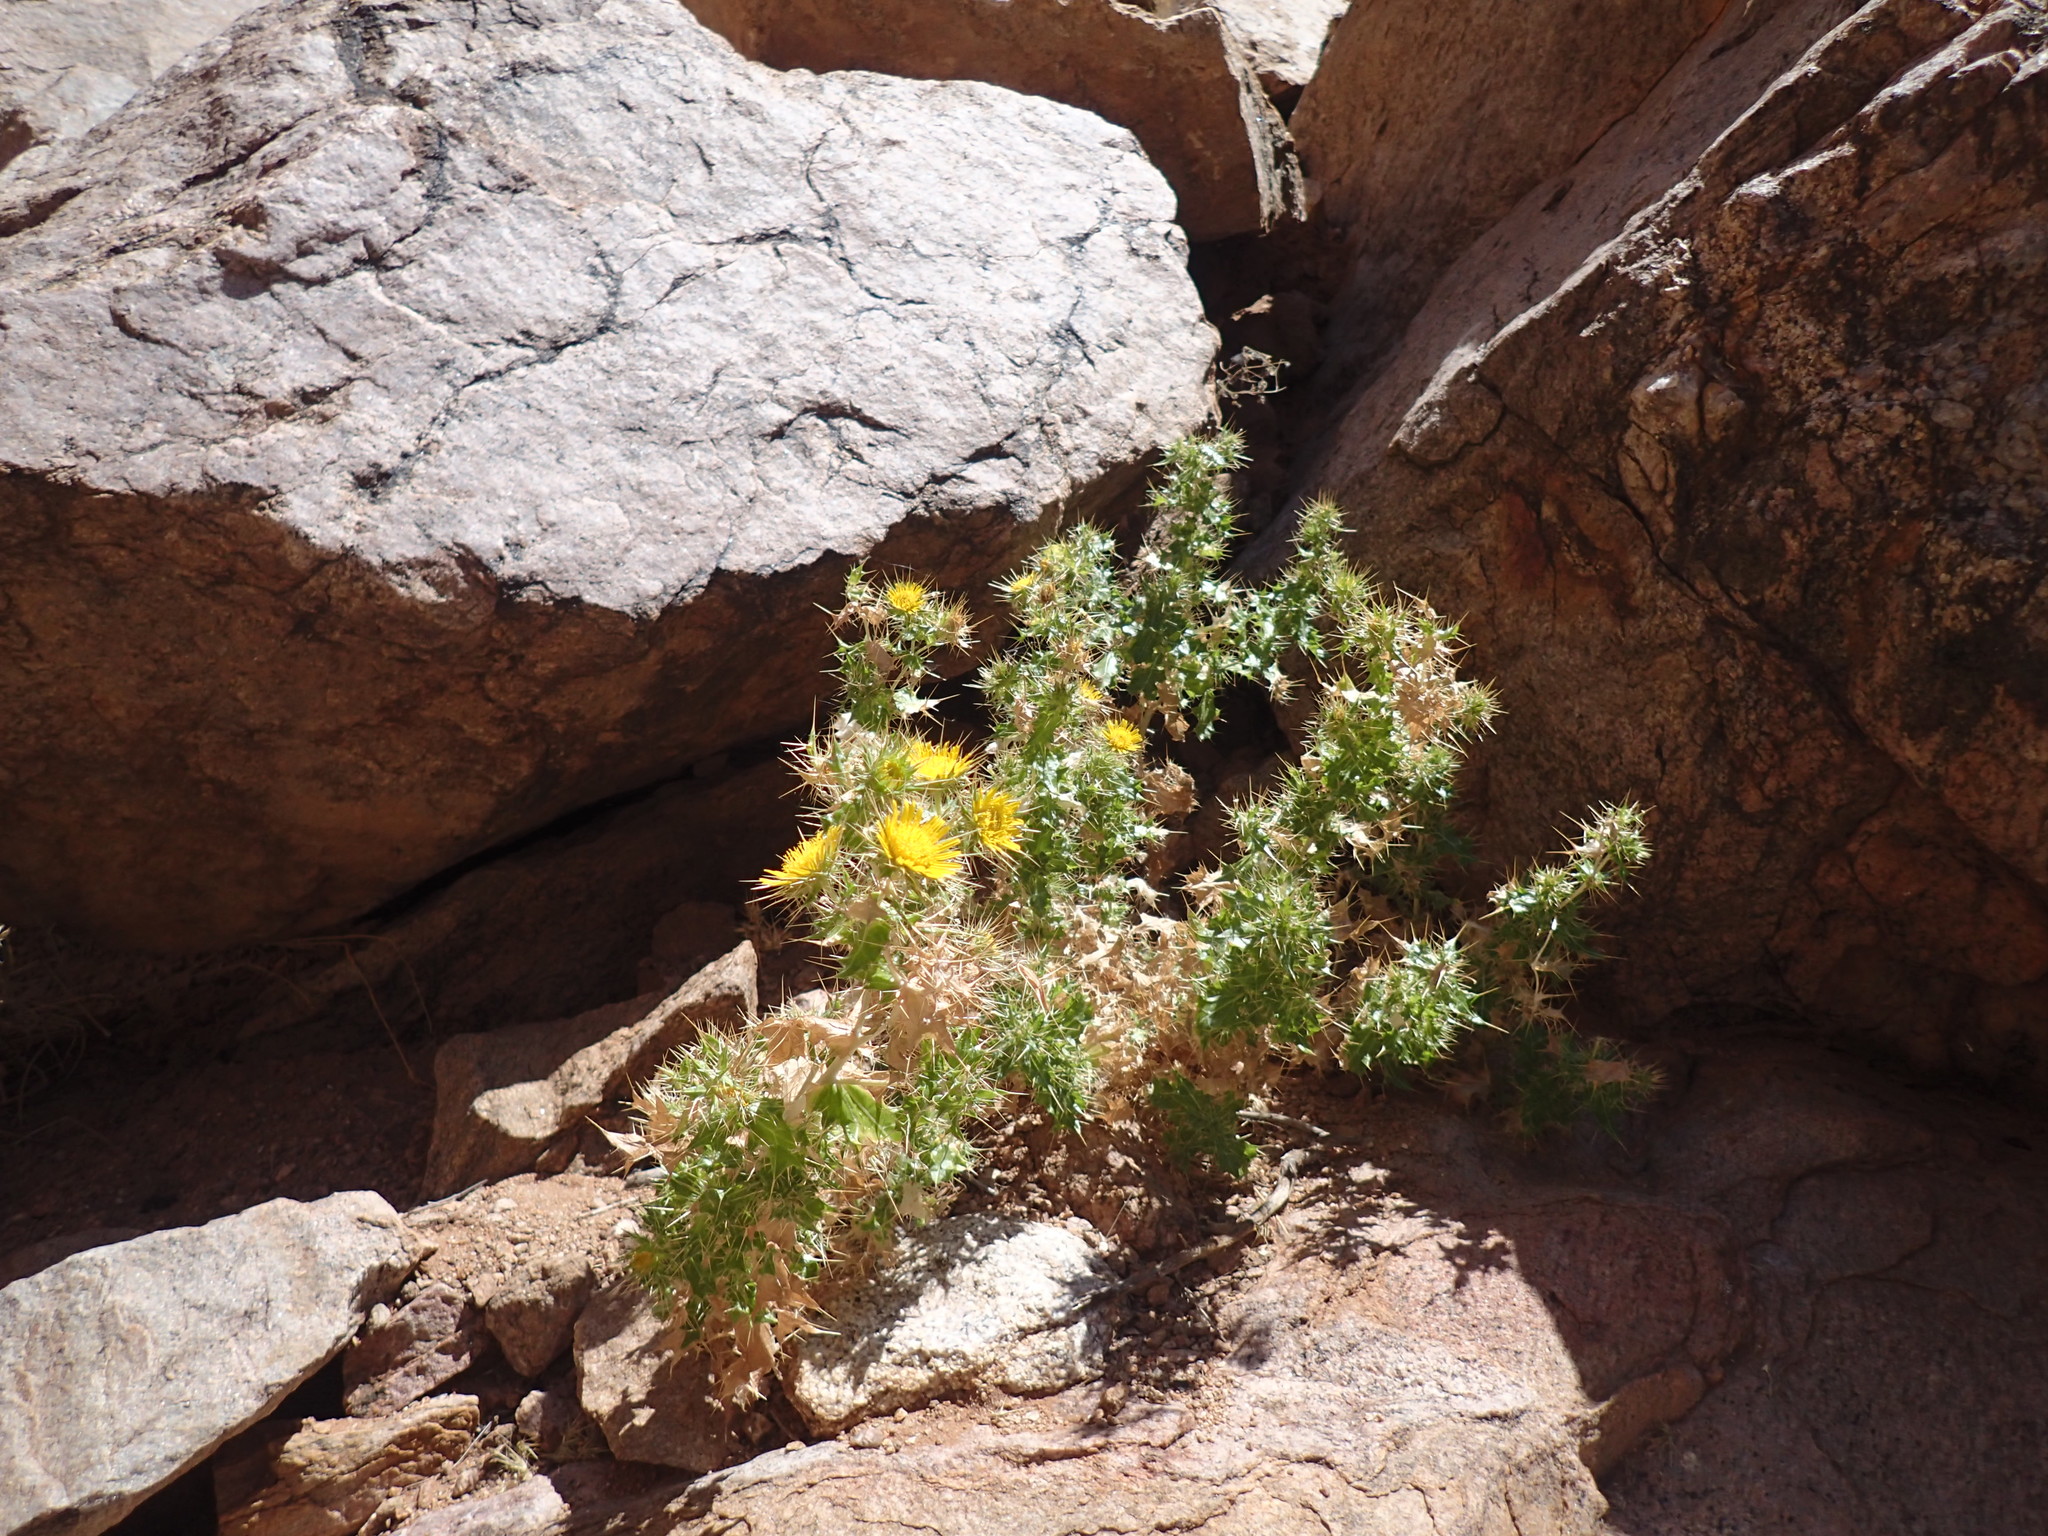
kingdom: Plantae
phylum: Tracheophyta
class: Magnoliopsida
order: Asterales
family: Asteraceae
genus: Berkheya
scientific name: Berkheya spinosissima
